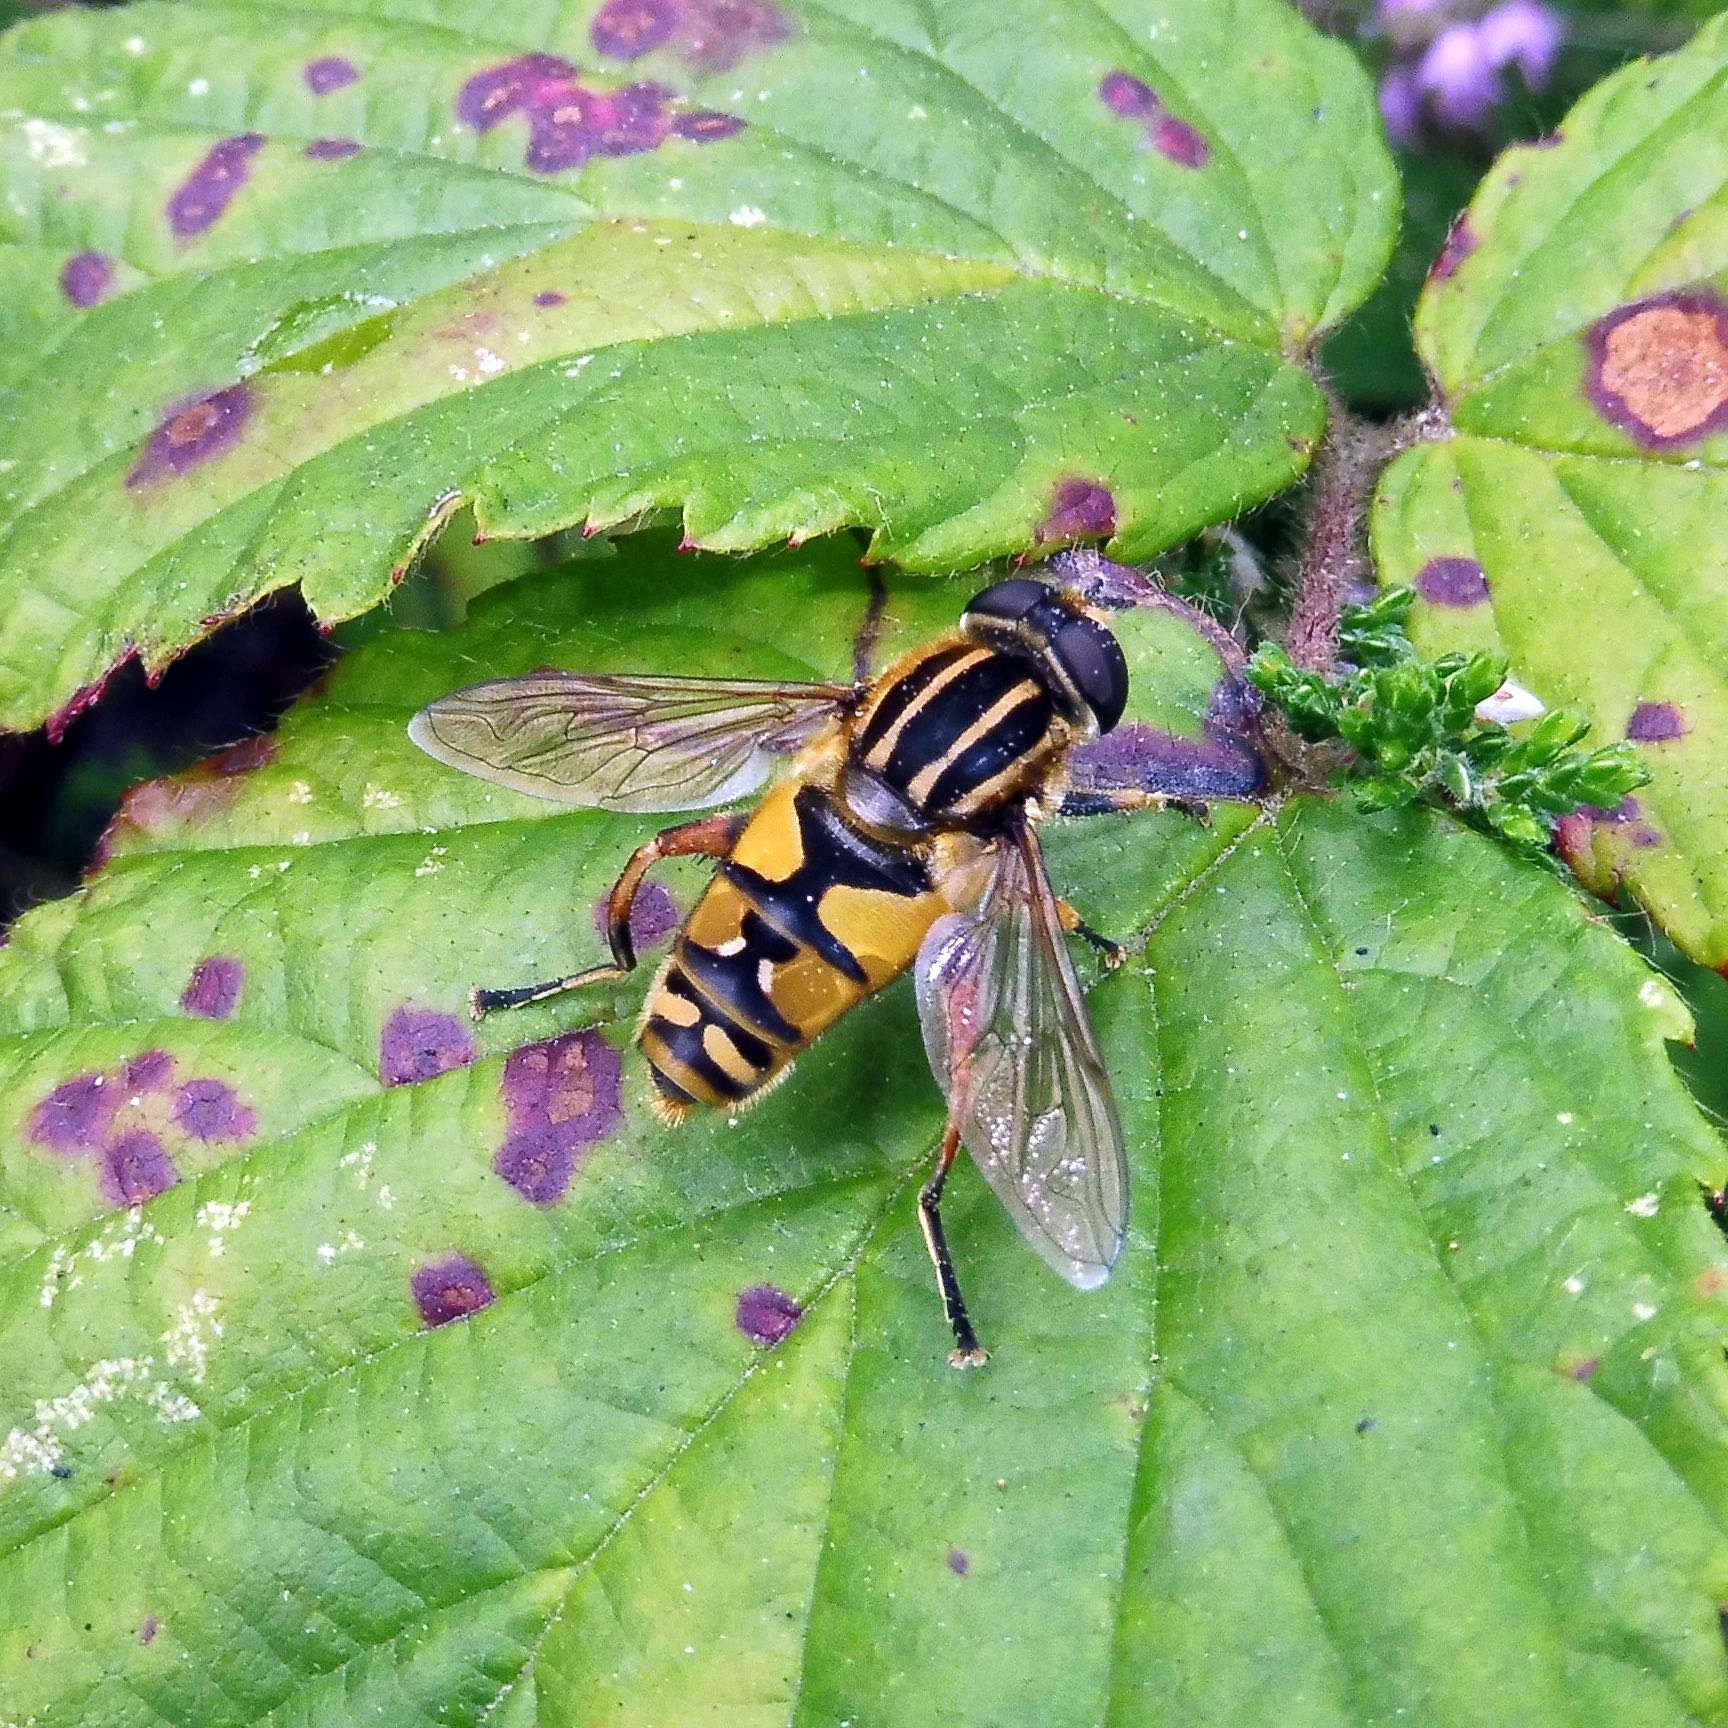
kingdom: Animalia
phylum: Arthropoda
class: Insecta
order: Diptera
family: Syrphidae
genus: Helophilus
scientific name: Helophilus pendulus
